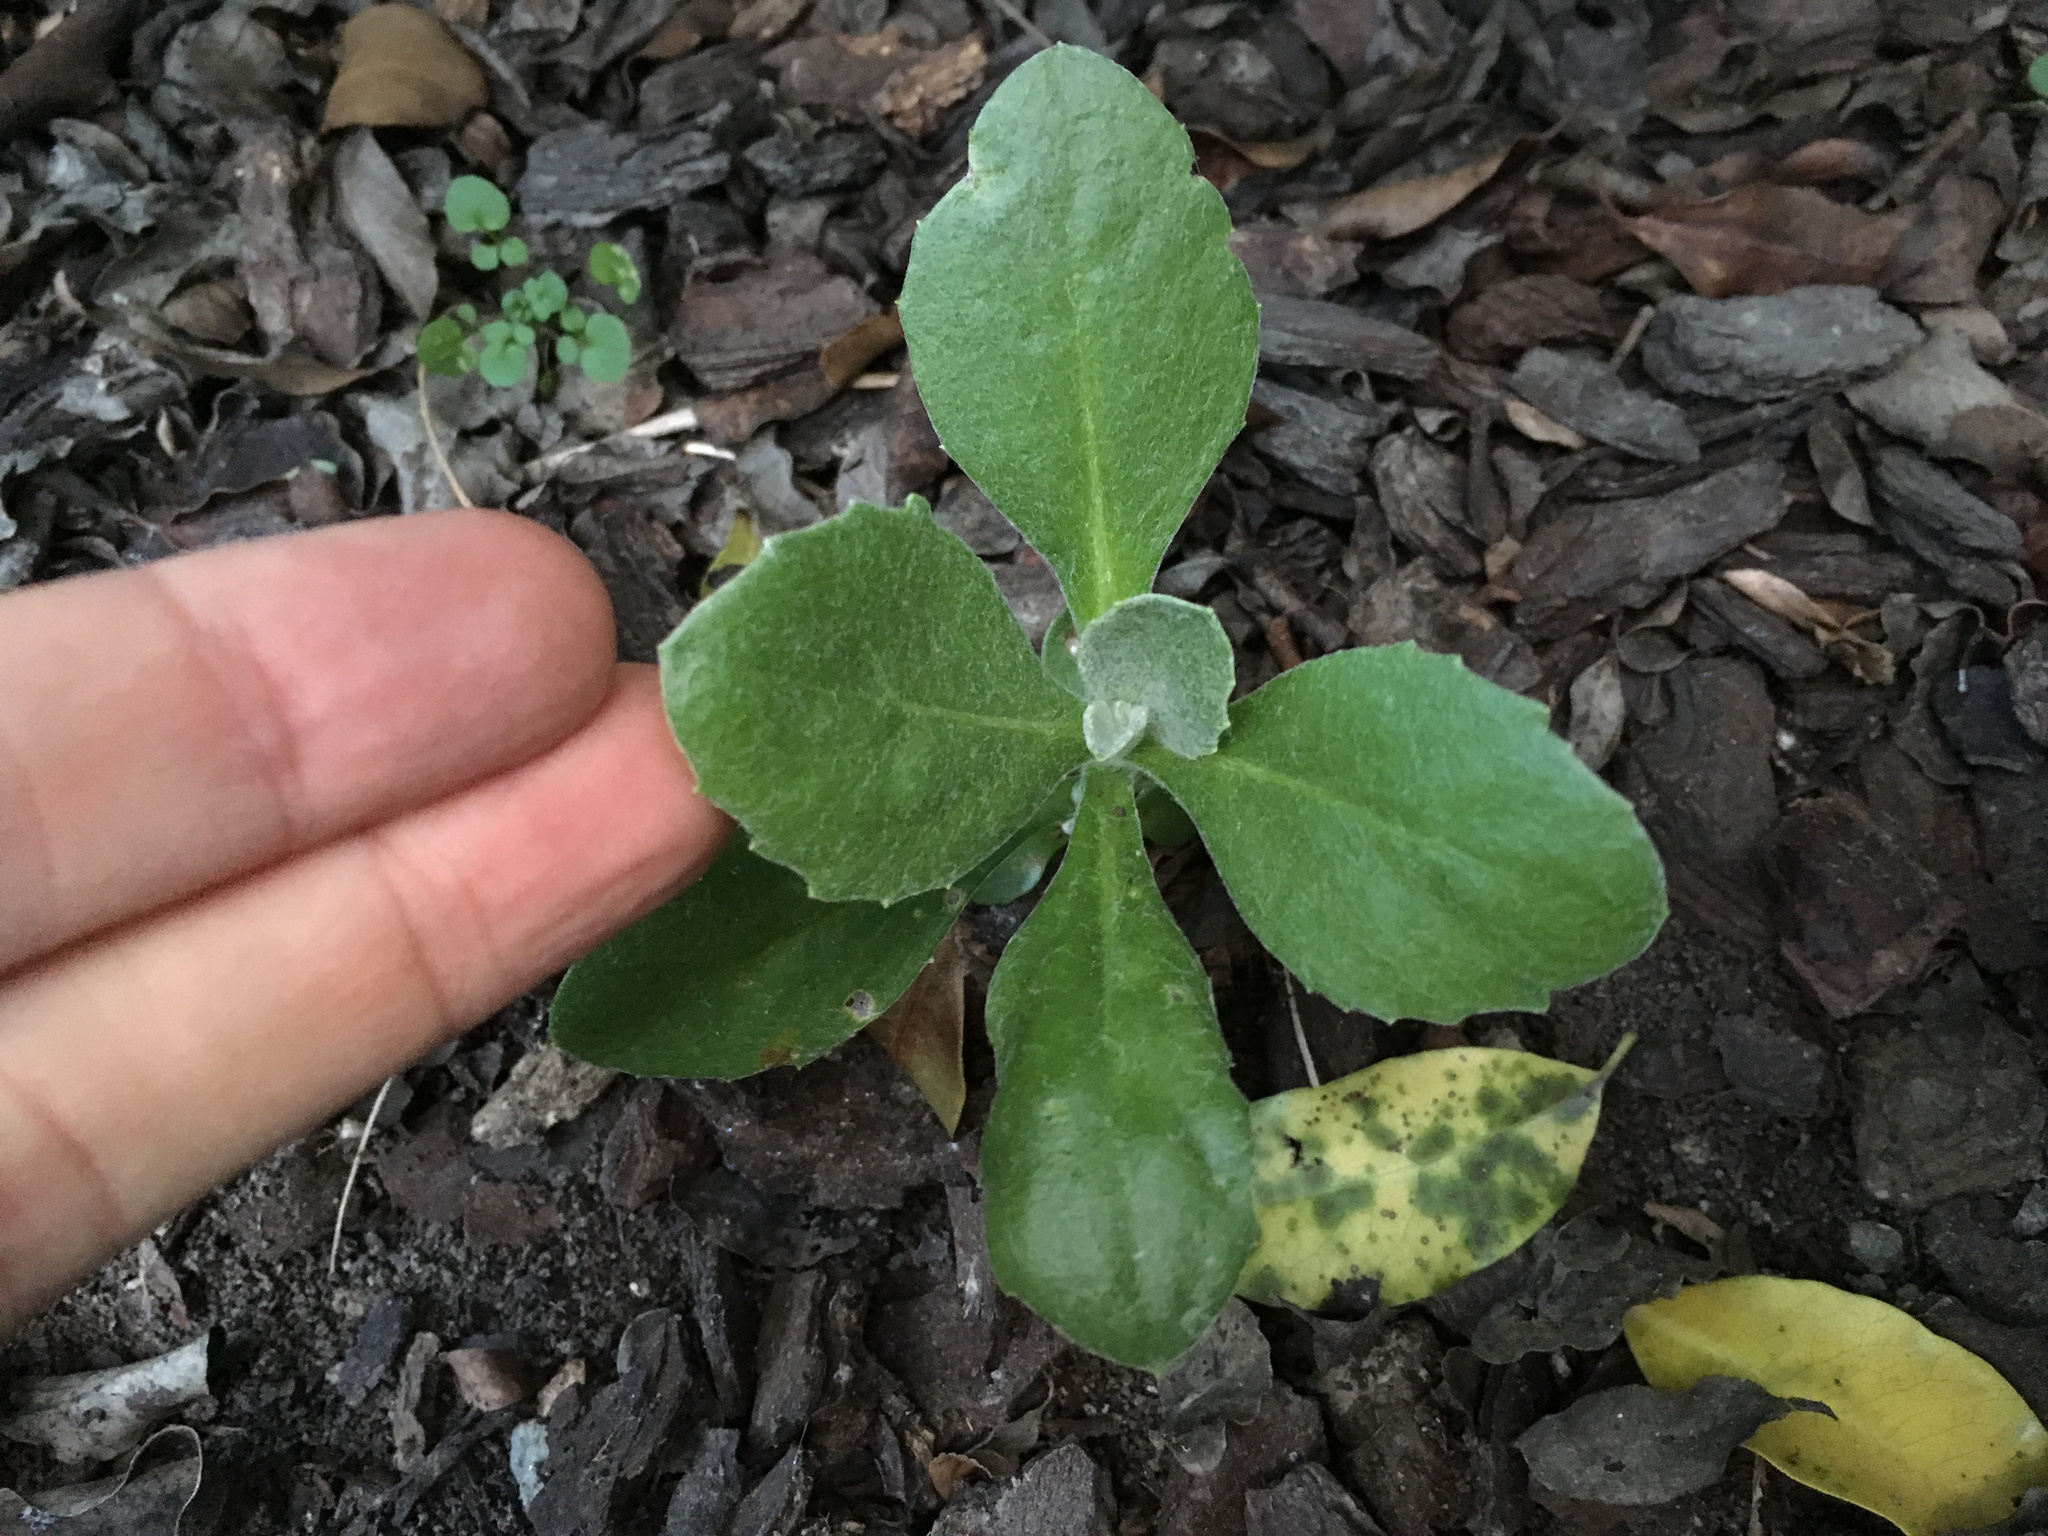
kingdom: Plantae
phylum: Tracheophyta
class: Magnoliopsida
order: Asterales
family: Asteraceae
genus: Osteospermum
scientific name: Osteospermum moniliferum
